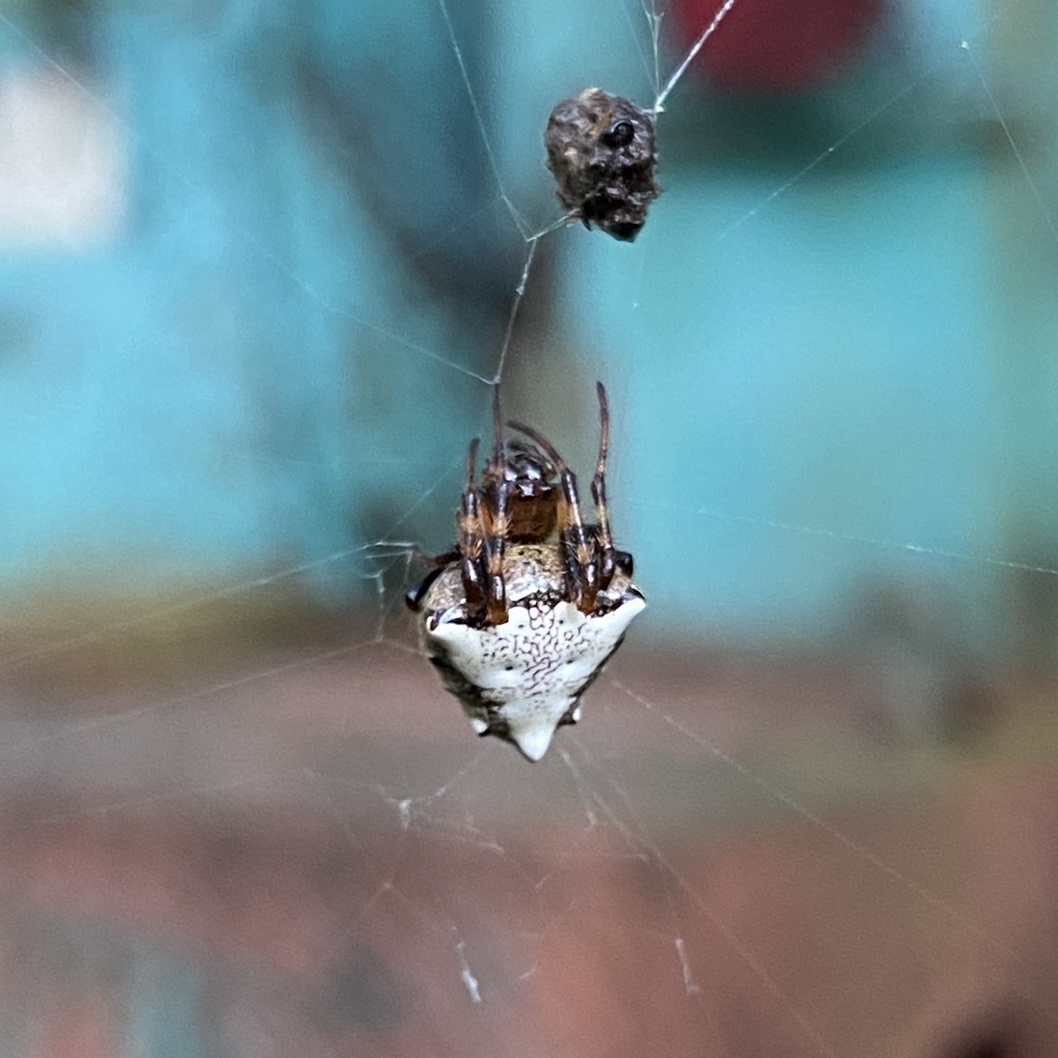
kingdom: Animalia
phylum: Arthropoda
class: Arachnida
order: Araneae
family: Araneidae
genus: Verrucosa
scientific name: Verrucosa arenata
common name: Orb weavers
